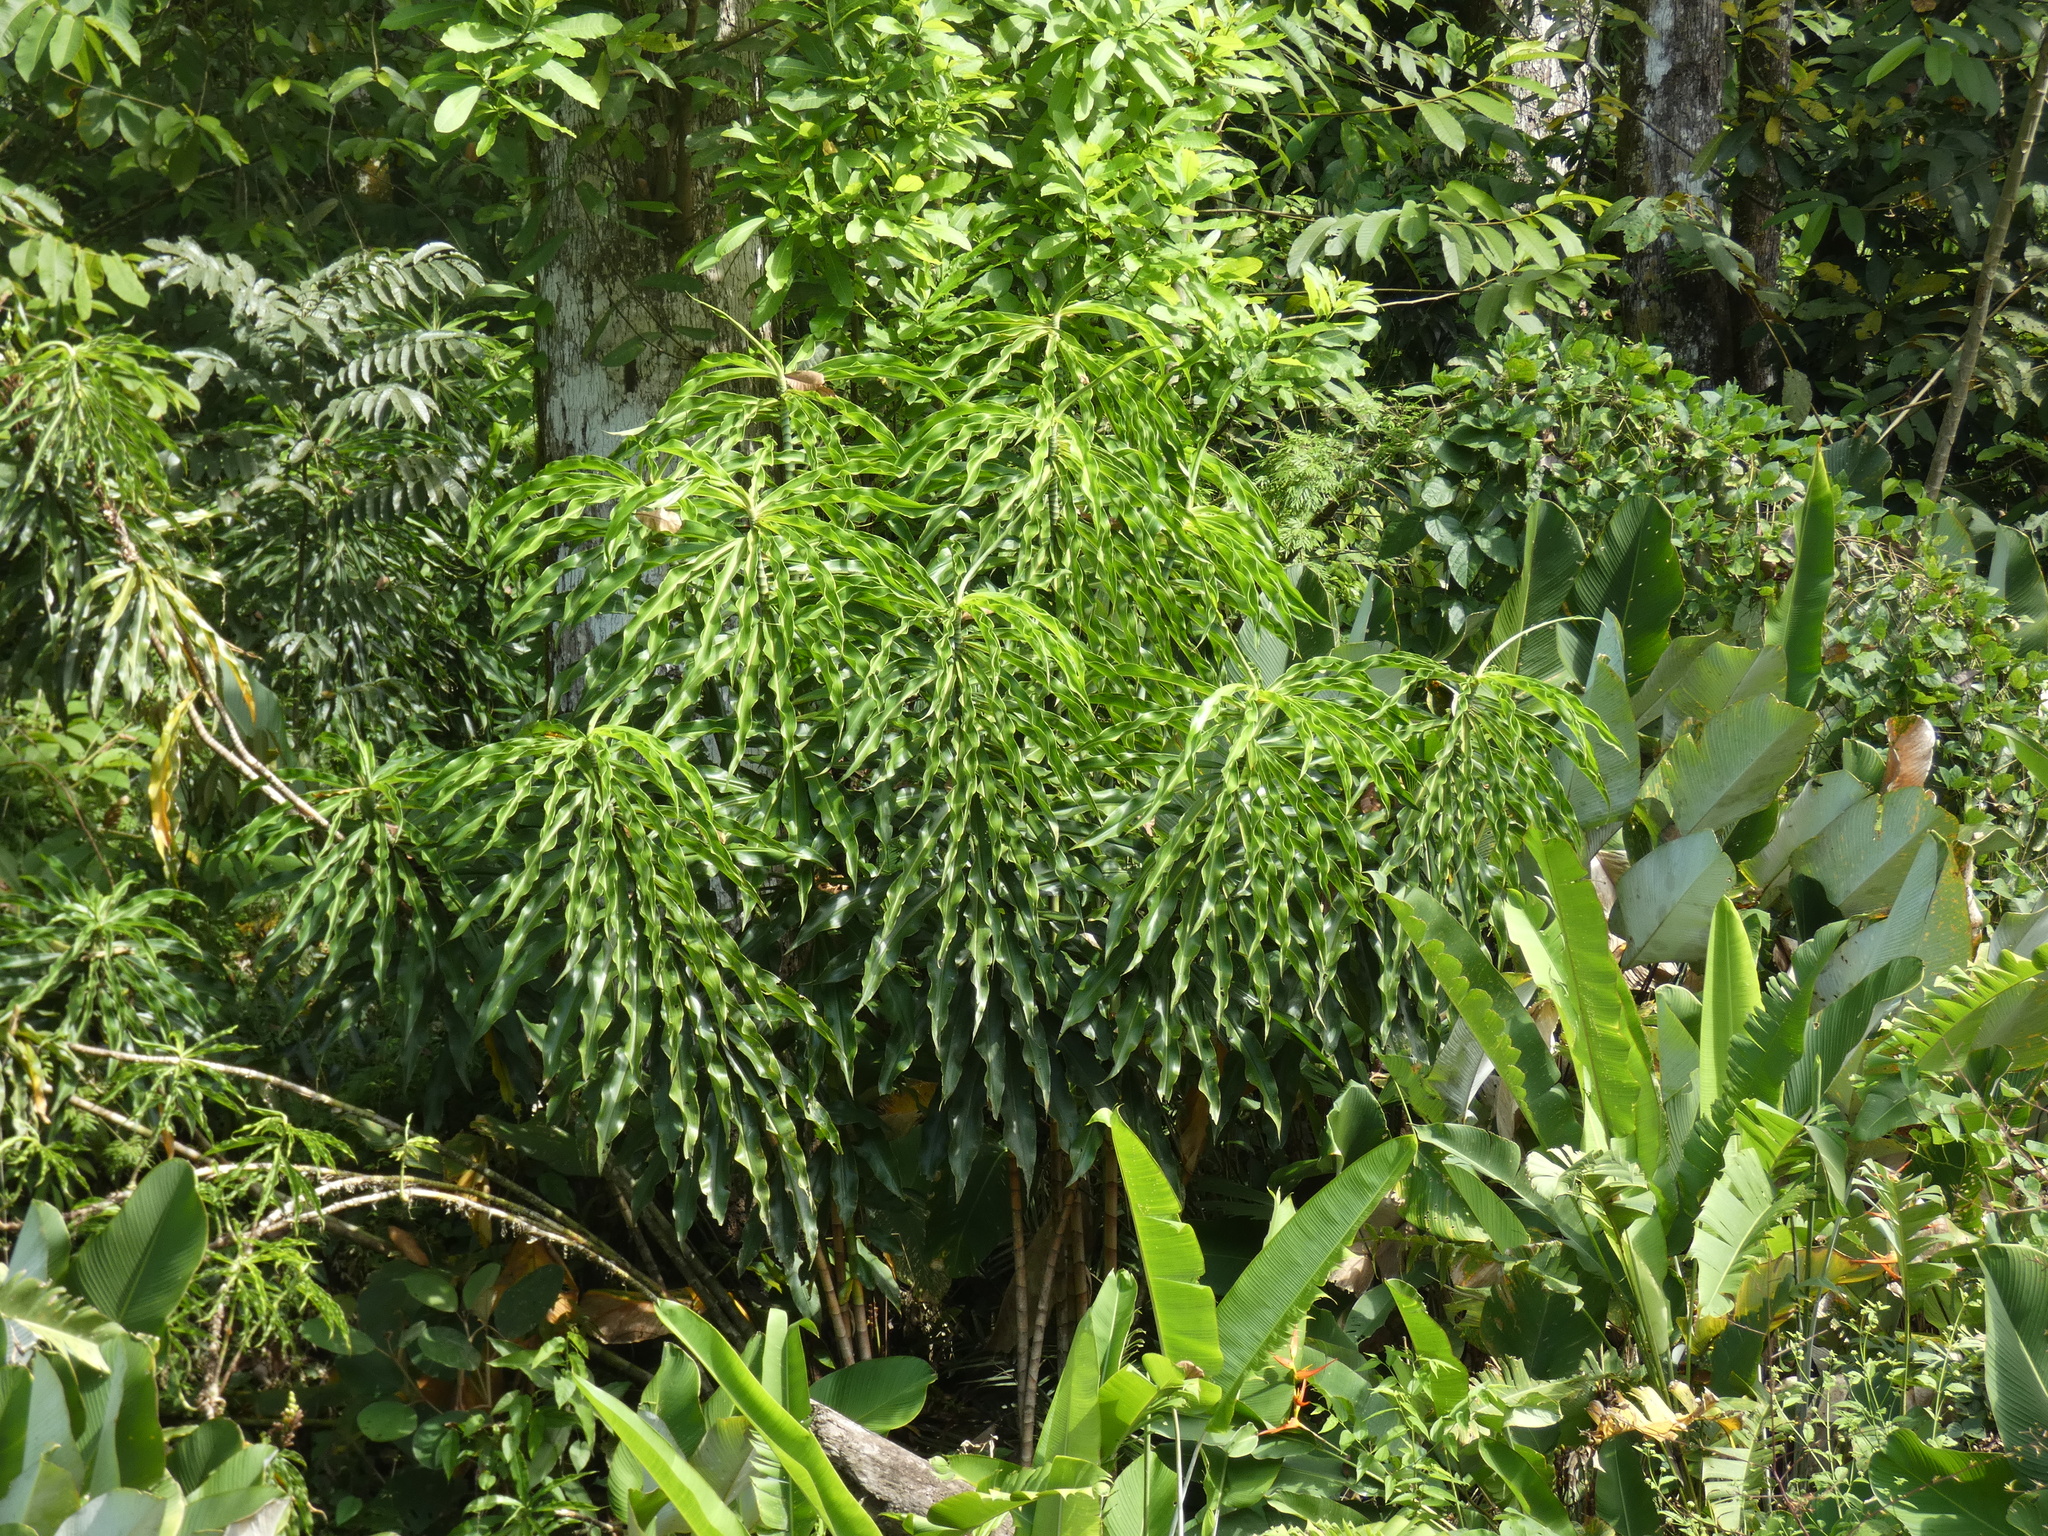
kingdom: Plantae
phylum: Tracheophyta
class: Liliopsida
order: Zingiberales
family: Costaceae
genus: Dimerocostus
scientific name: Dimerocostus strobilaceus
